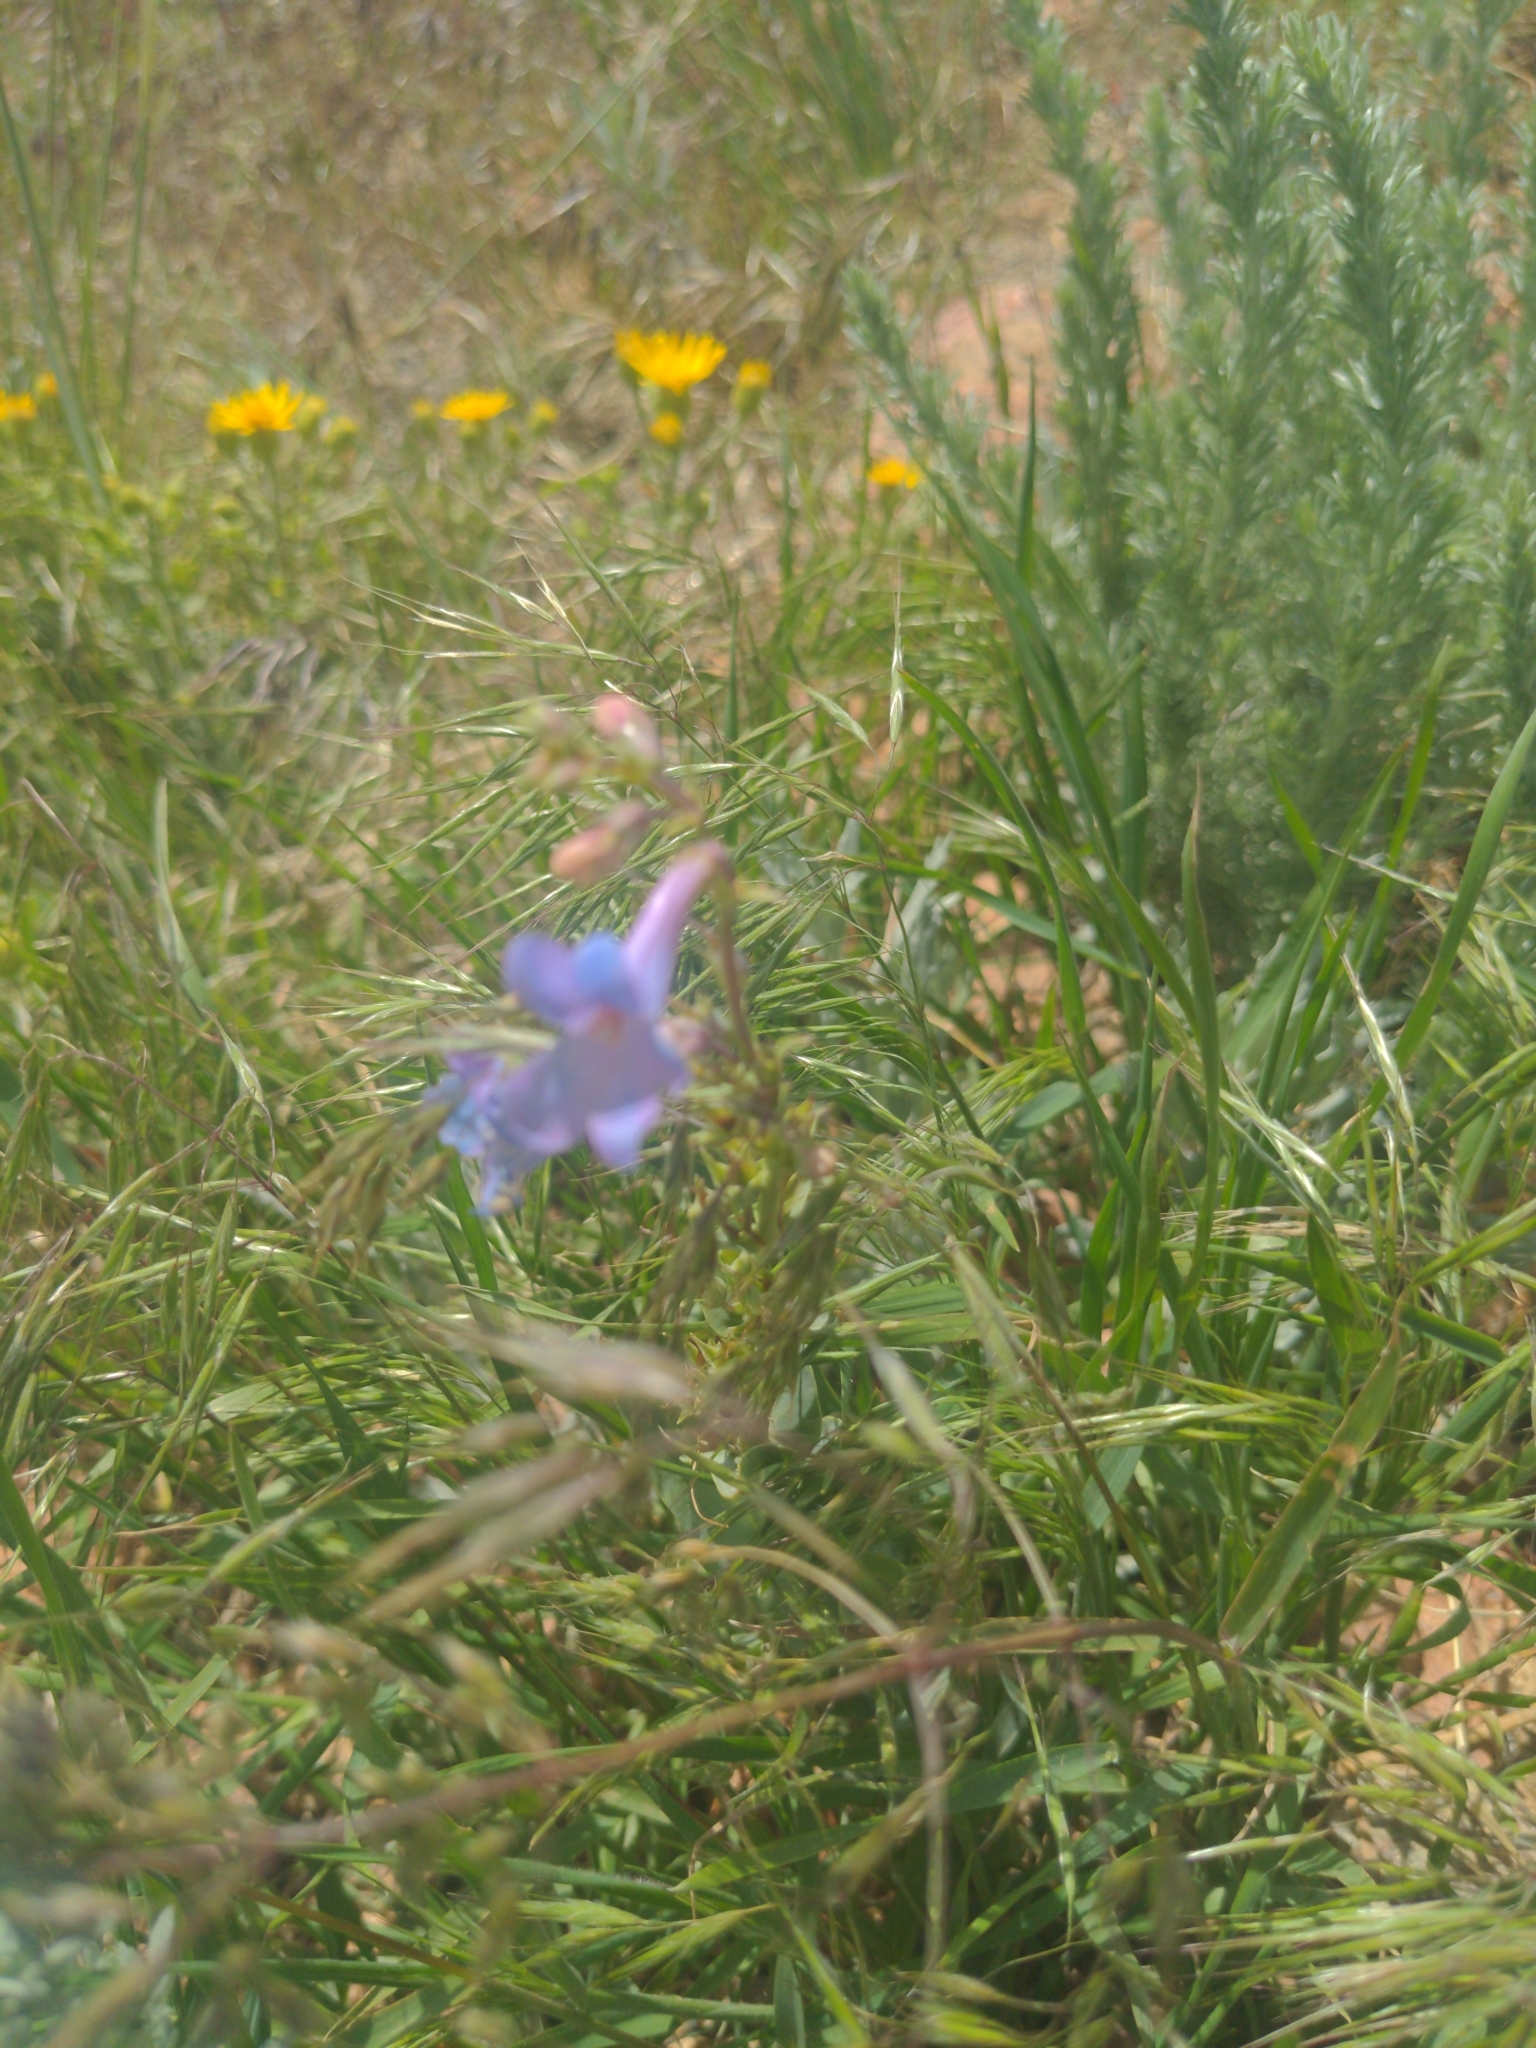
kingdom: Plantae
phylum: Tracheophyta
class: Magnoliopsida
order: Lamiales
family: Plantaginaceae
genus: Penstemon
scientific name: Penstemon virens
